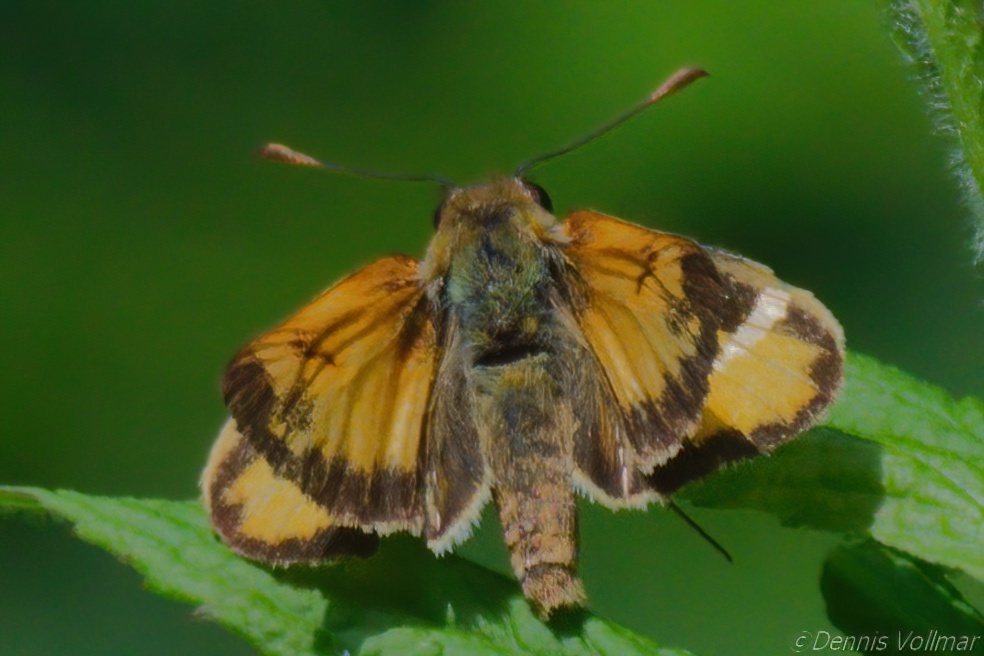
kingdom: Animalia
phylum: Arthropoda
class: Insecta
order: Lepidoptera
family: Hesperiidae
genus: Lon
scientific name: Lon zabulon
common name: Zabulon skipper
